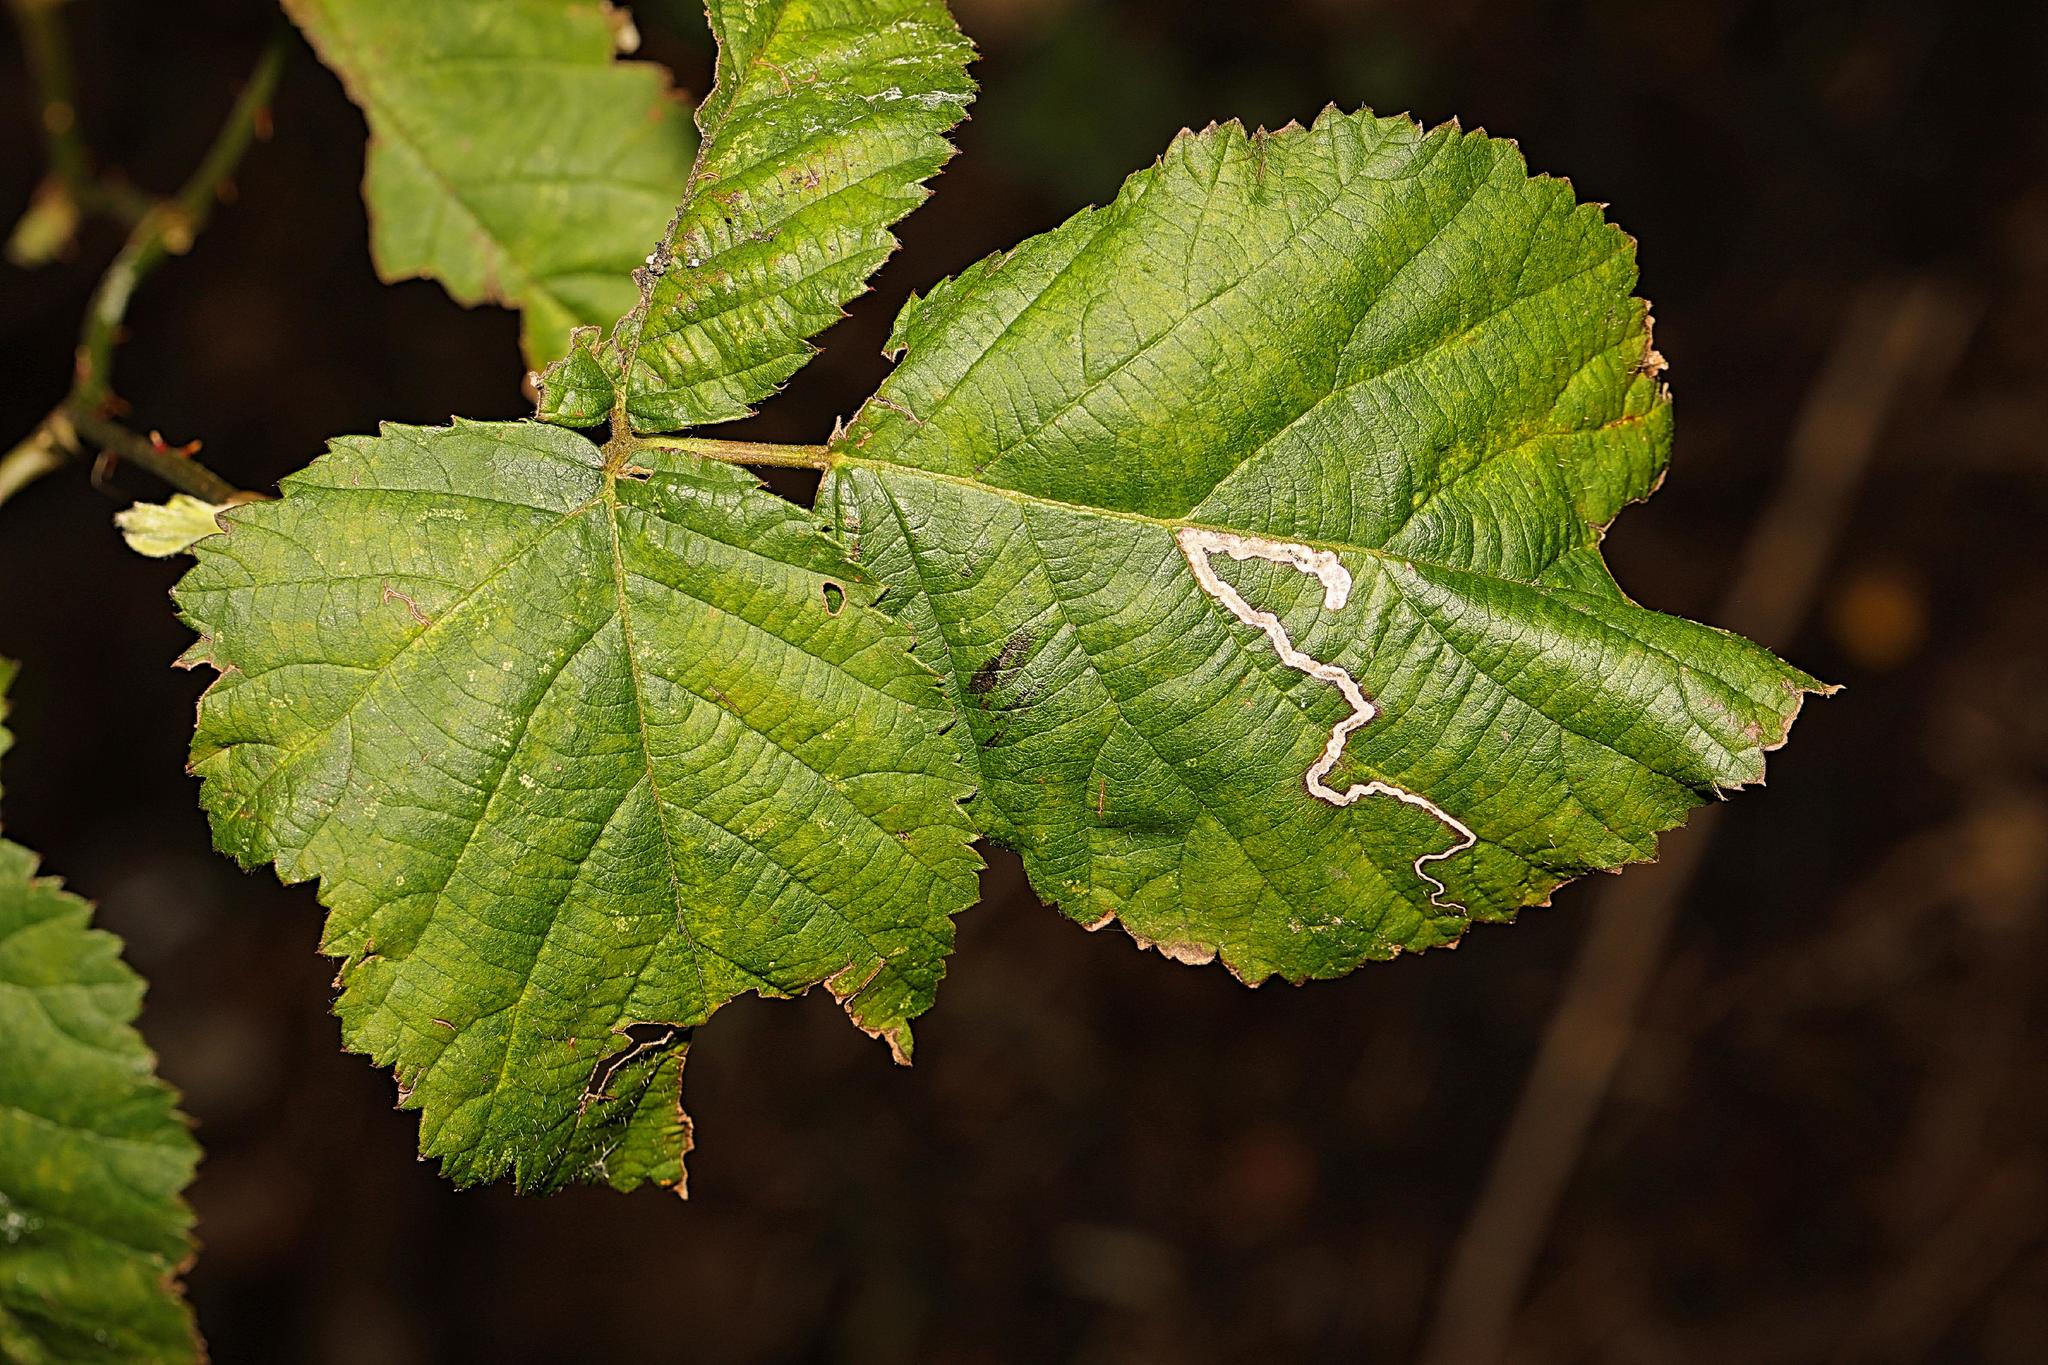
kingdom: Animalia
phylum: Arthropoda
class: Insecta
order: Lepidoptera
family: Nepticulidae
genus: Stigmella
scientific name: Stigmella aurella
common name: Golden pigmy
